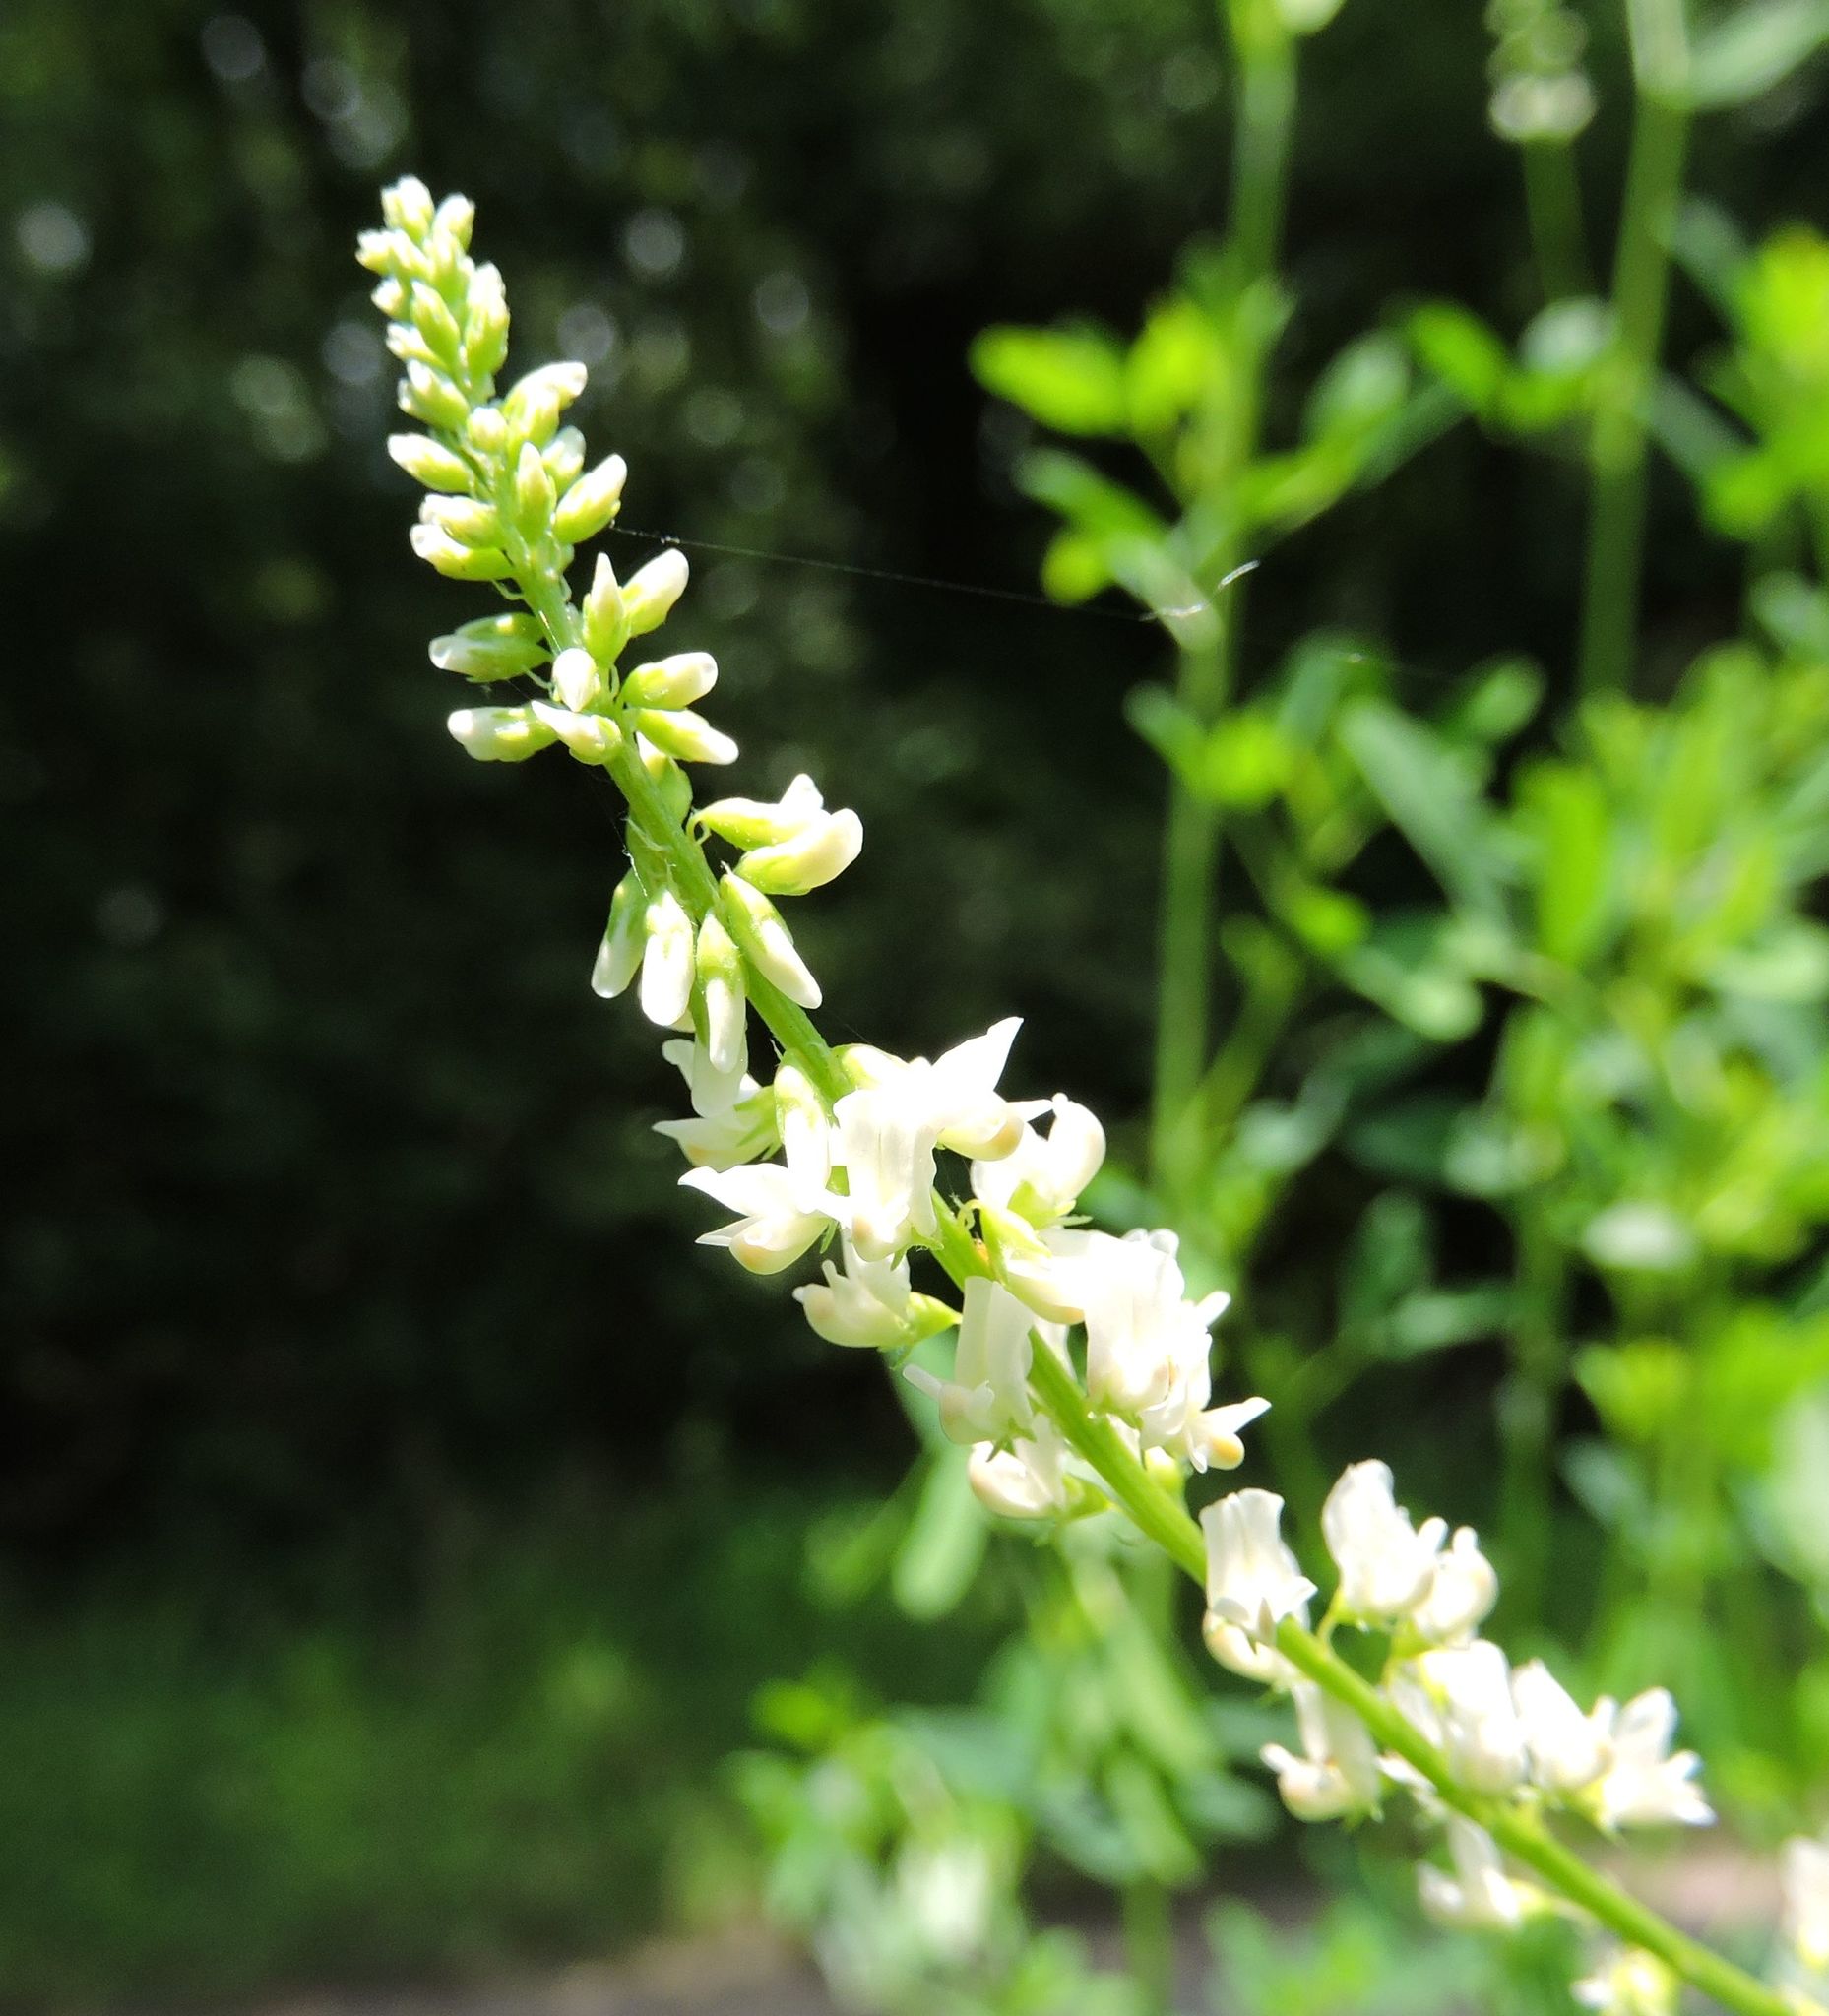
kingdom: Plantae
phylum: Tracheophyta
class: Magnoliopsida
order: Fabales
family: Fabaceae
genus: Melilotus
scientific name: Melilotus albus
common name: White melilot
